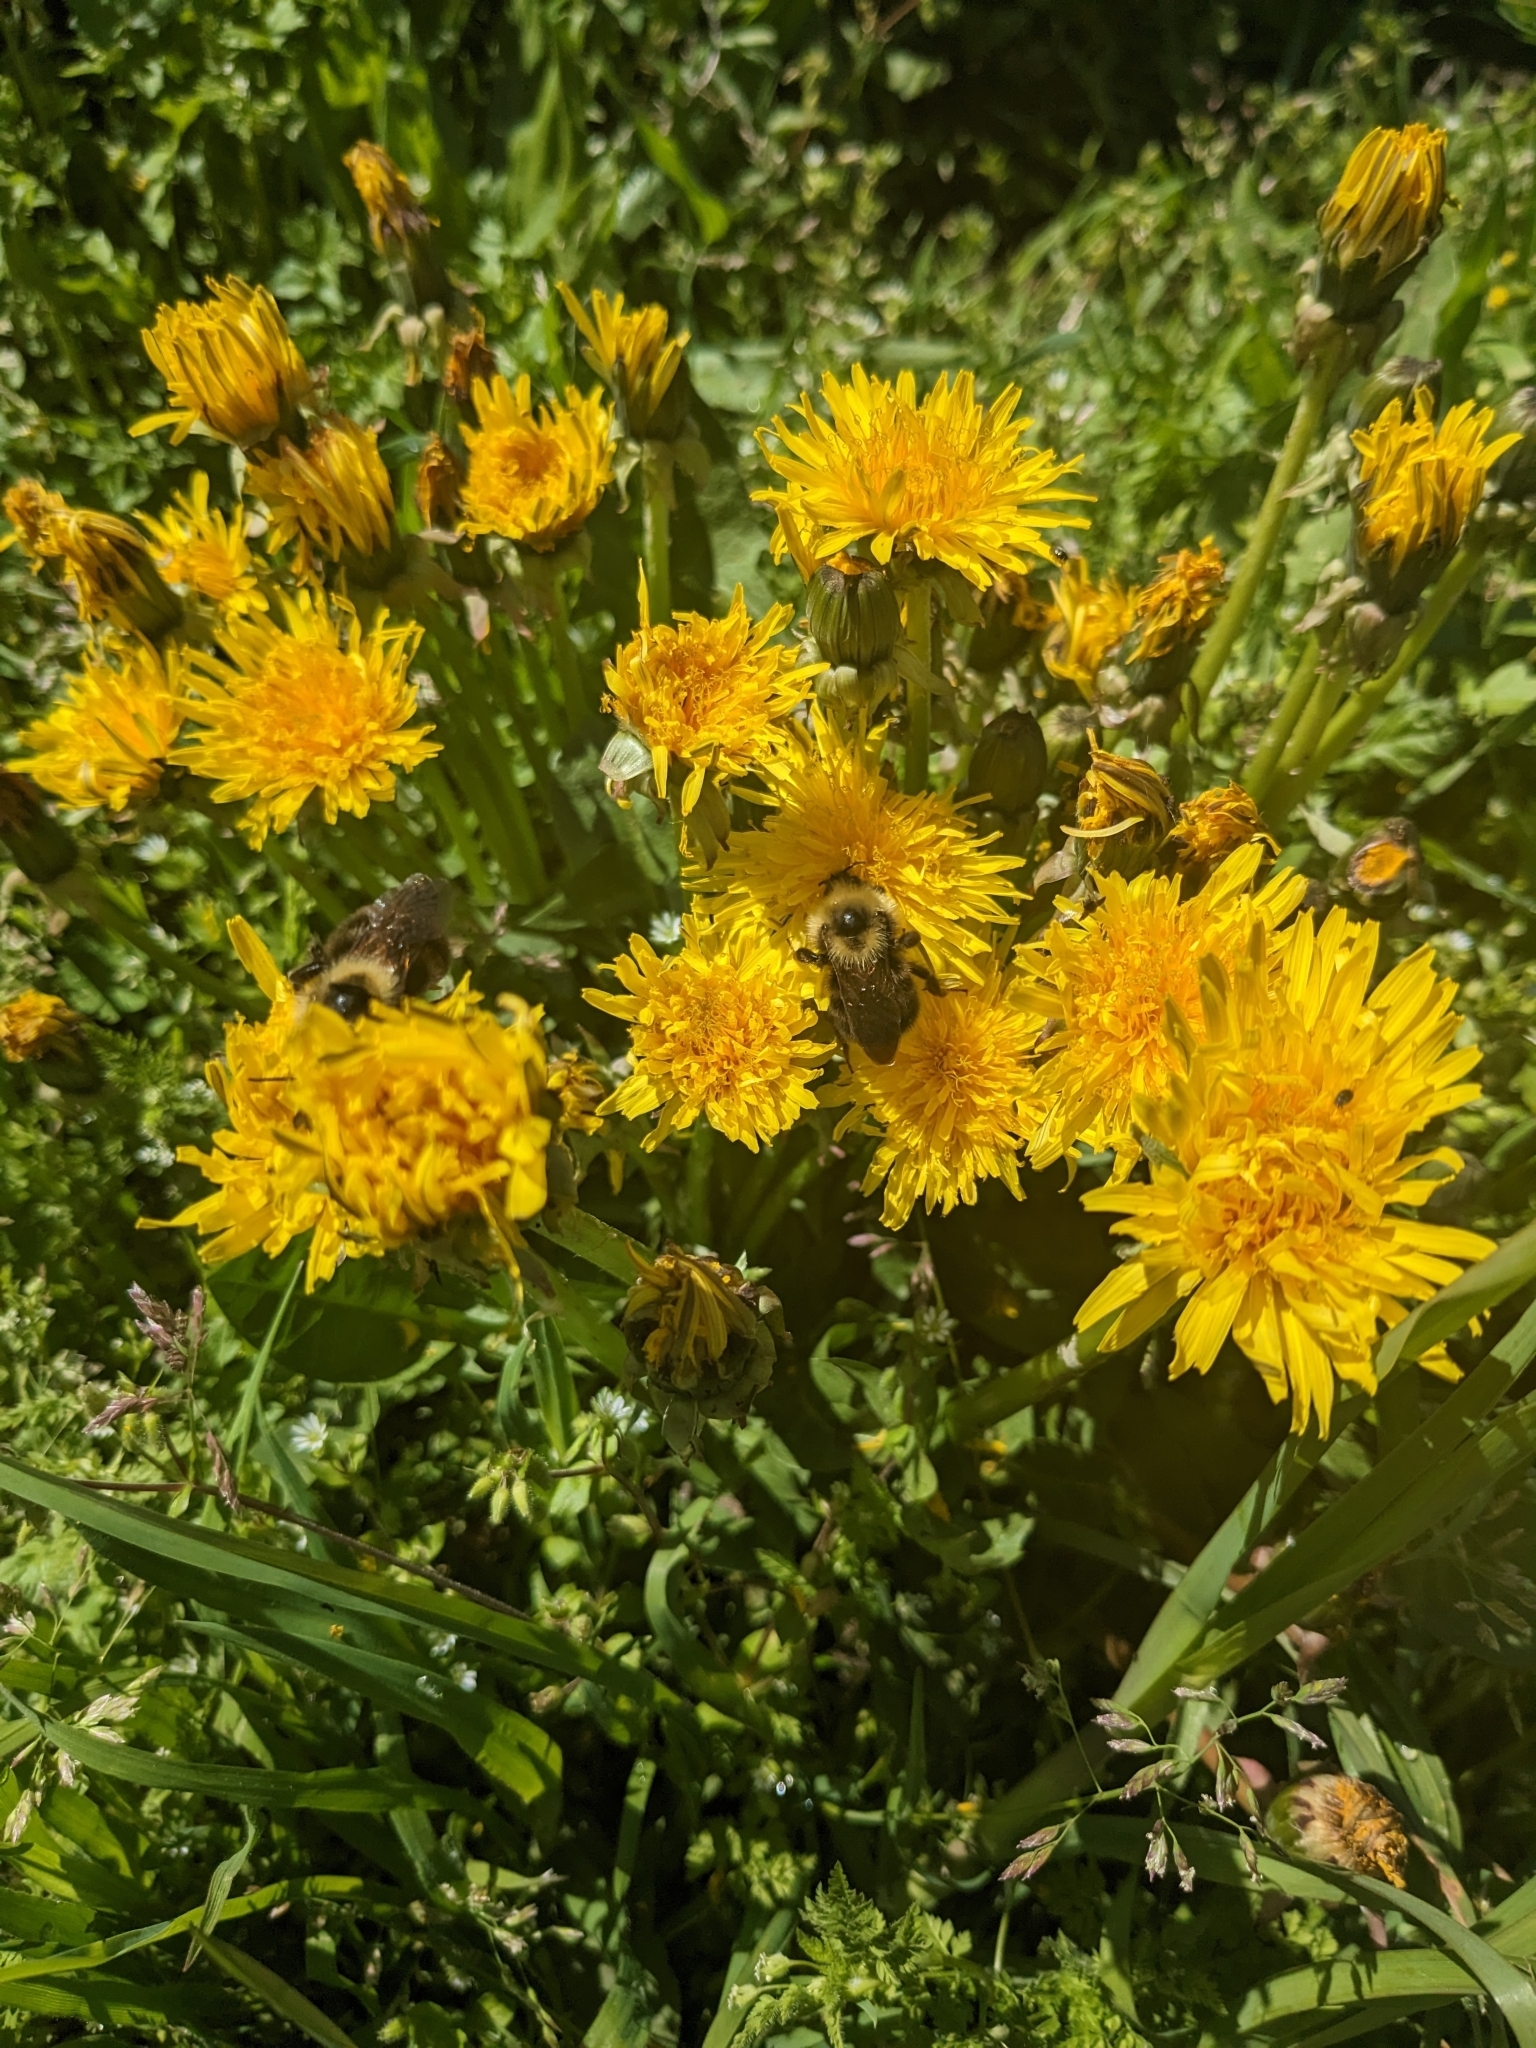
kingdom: Animalia
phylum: Arthropoda
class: Insecta
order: Hymenoptera
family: Apidae
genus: Bombus
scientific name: Bombus flavidus
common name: Fernald cuckoo bumble bee
